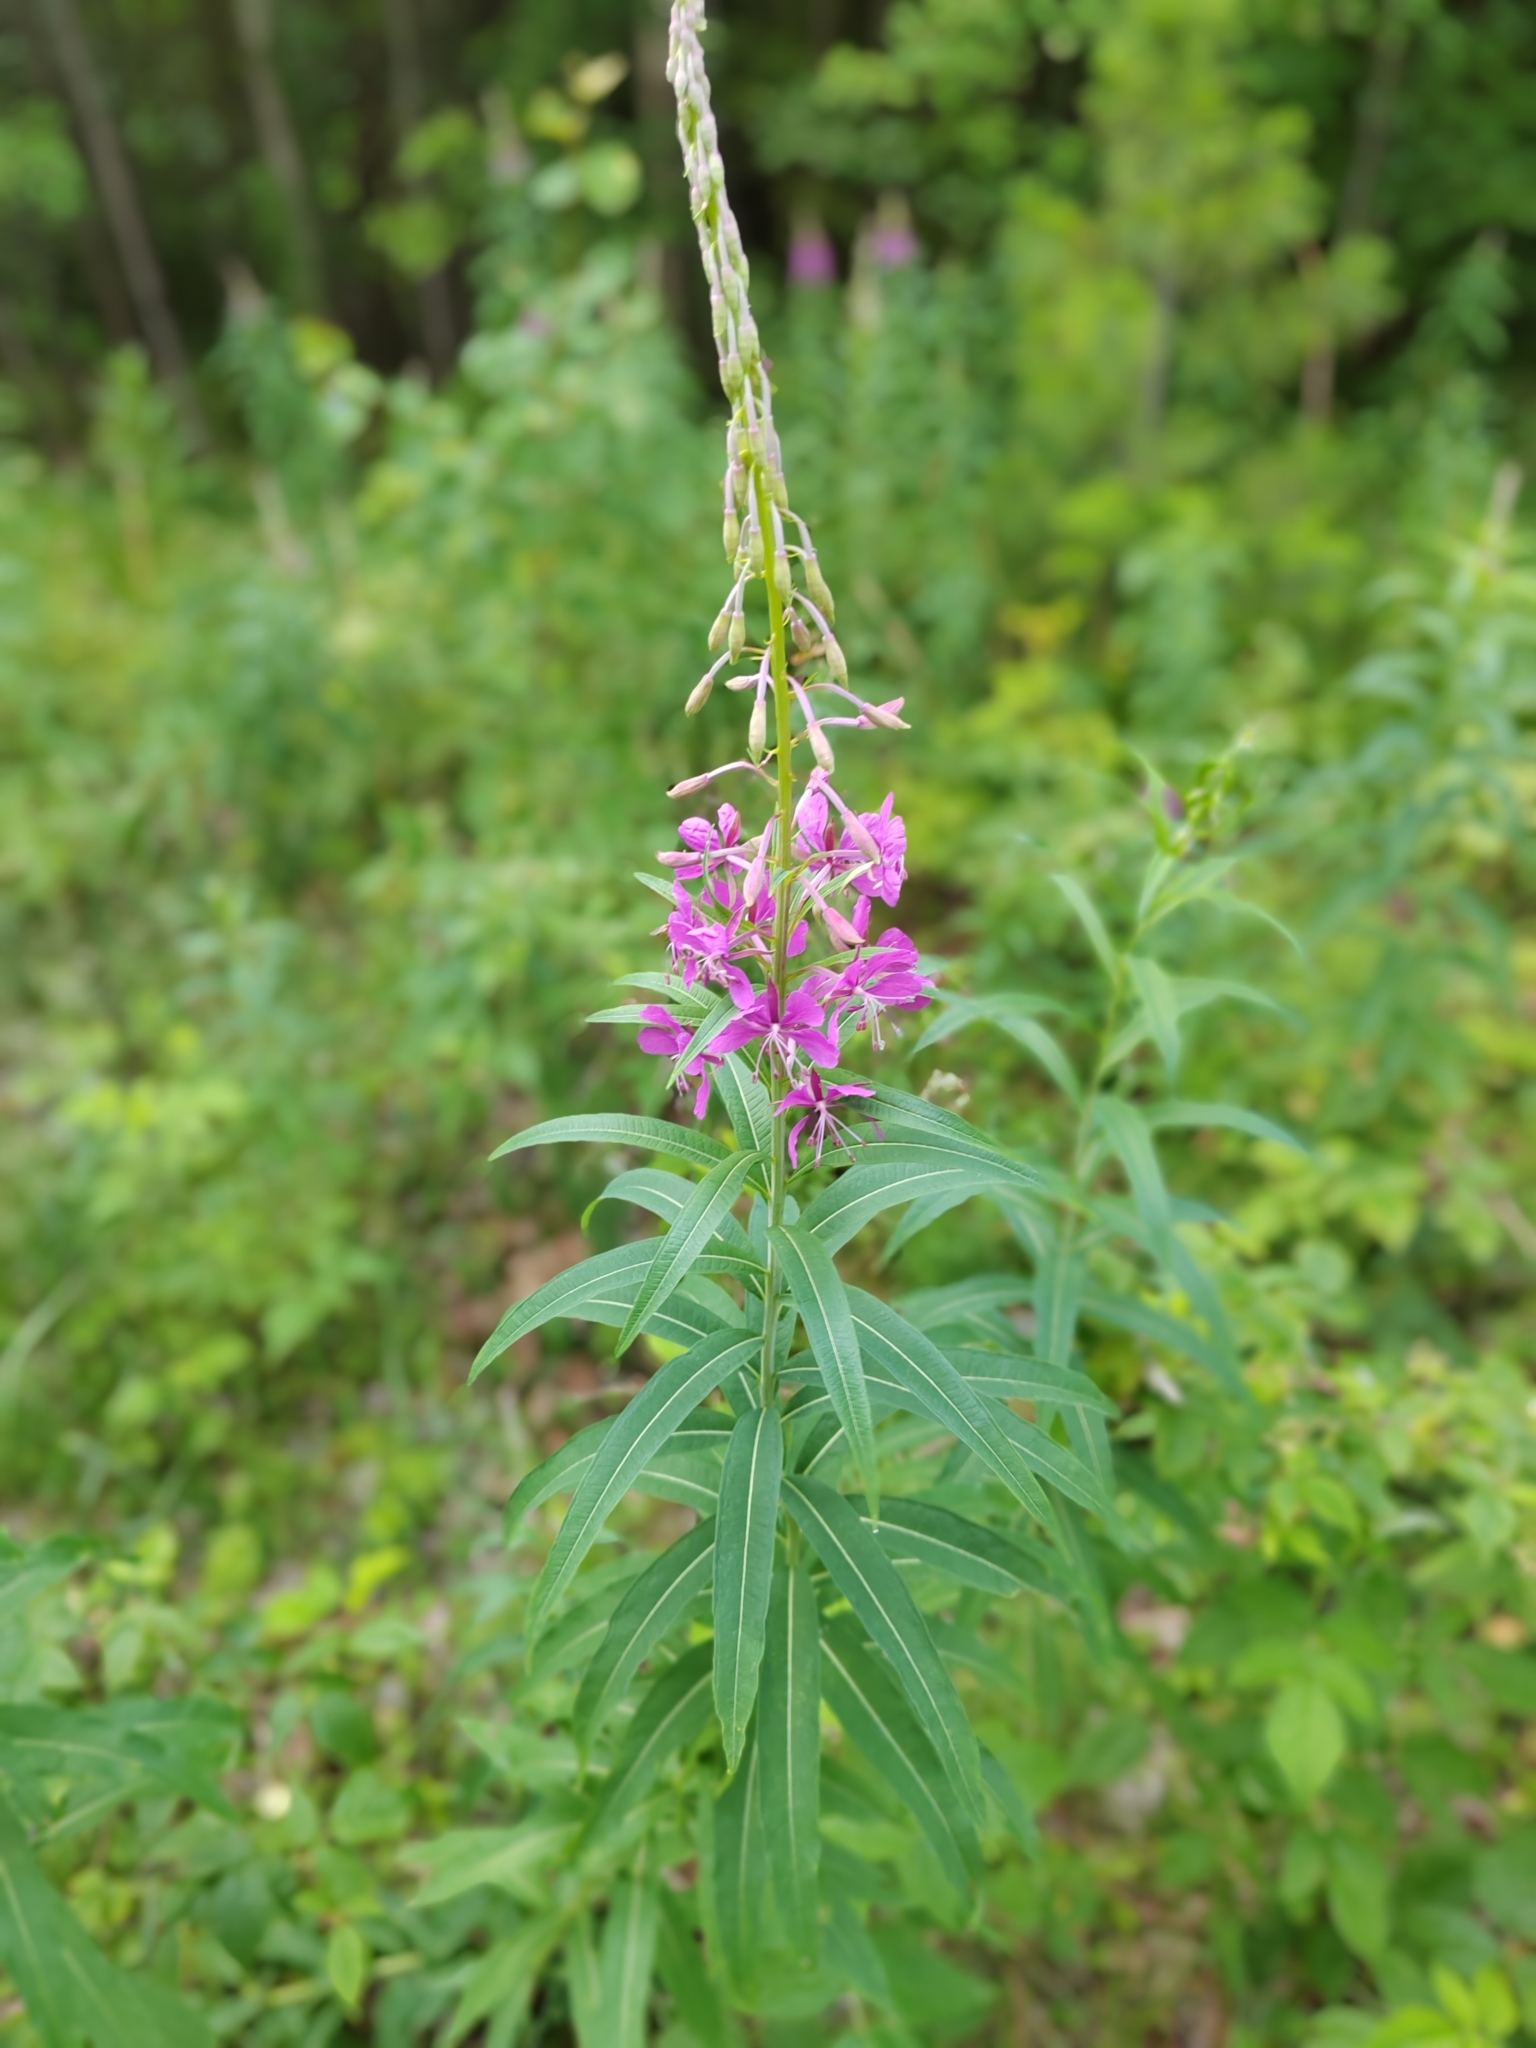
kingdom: Plantae
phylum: Tracheophyta
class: Magnoliopsida
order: Myrtales
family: Onagraceae
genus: Chamaenerion
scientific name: Chamaenerion angustifolium
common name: Fireweed
